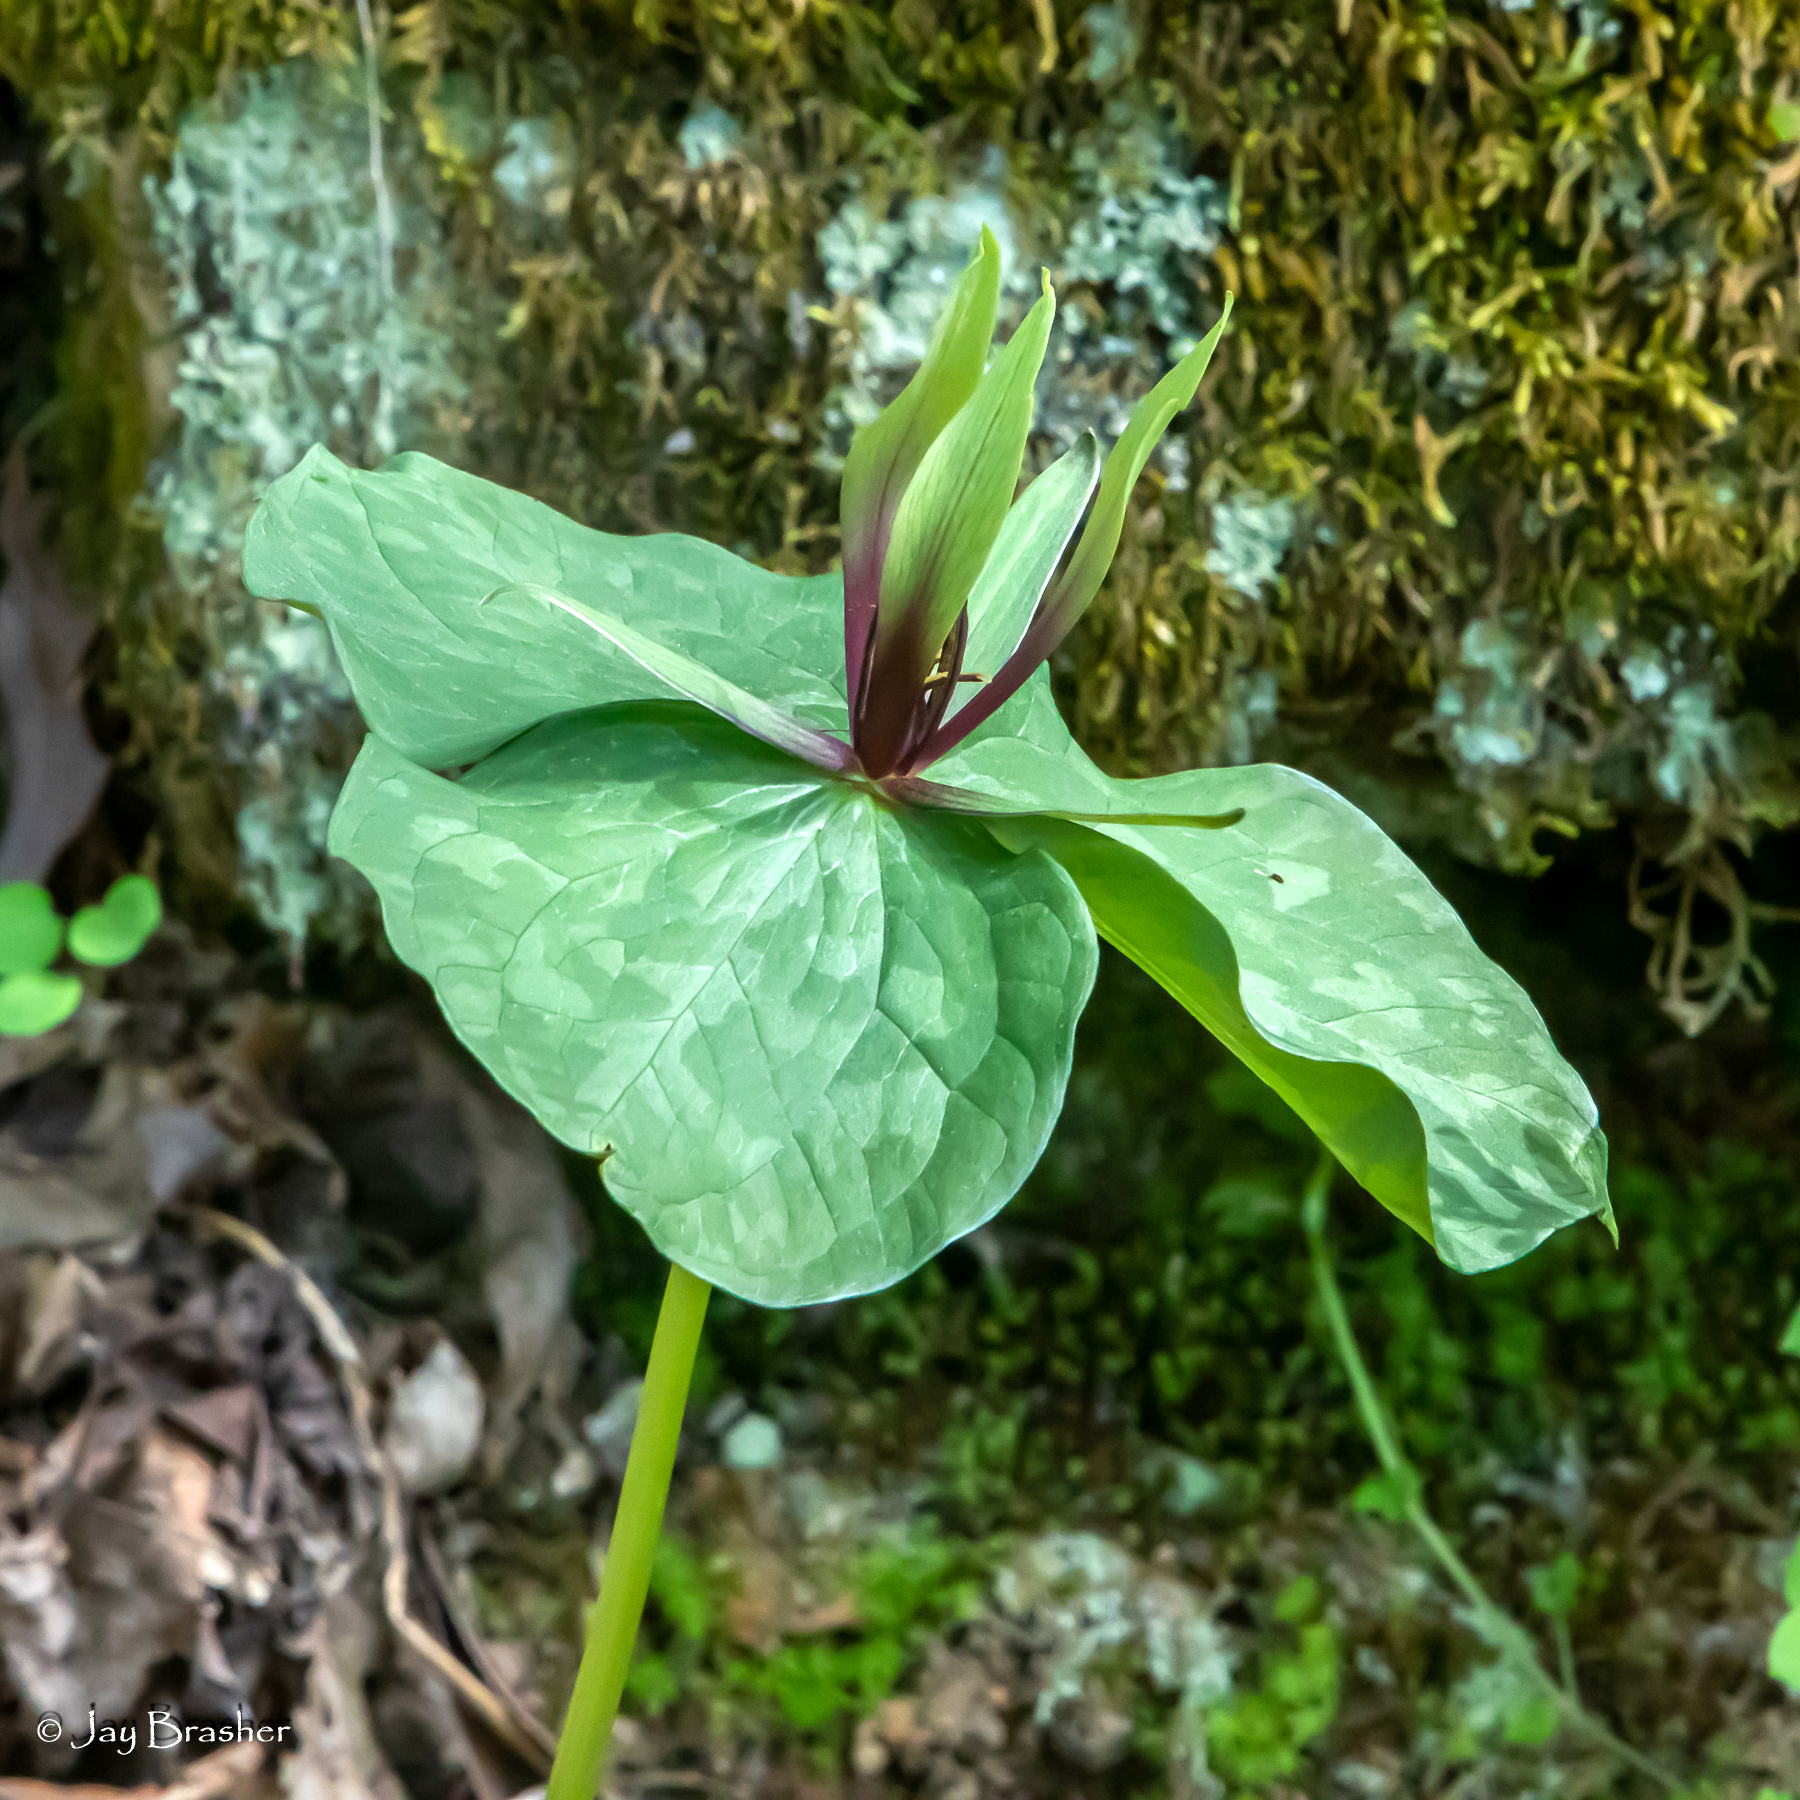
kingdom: Plantae
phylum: Tracheophyta
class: Liliopsida
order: Liliales
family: Melanthiaceae
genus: Trillium
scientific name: Trillium viridescens
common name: Ozark green trillium
